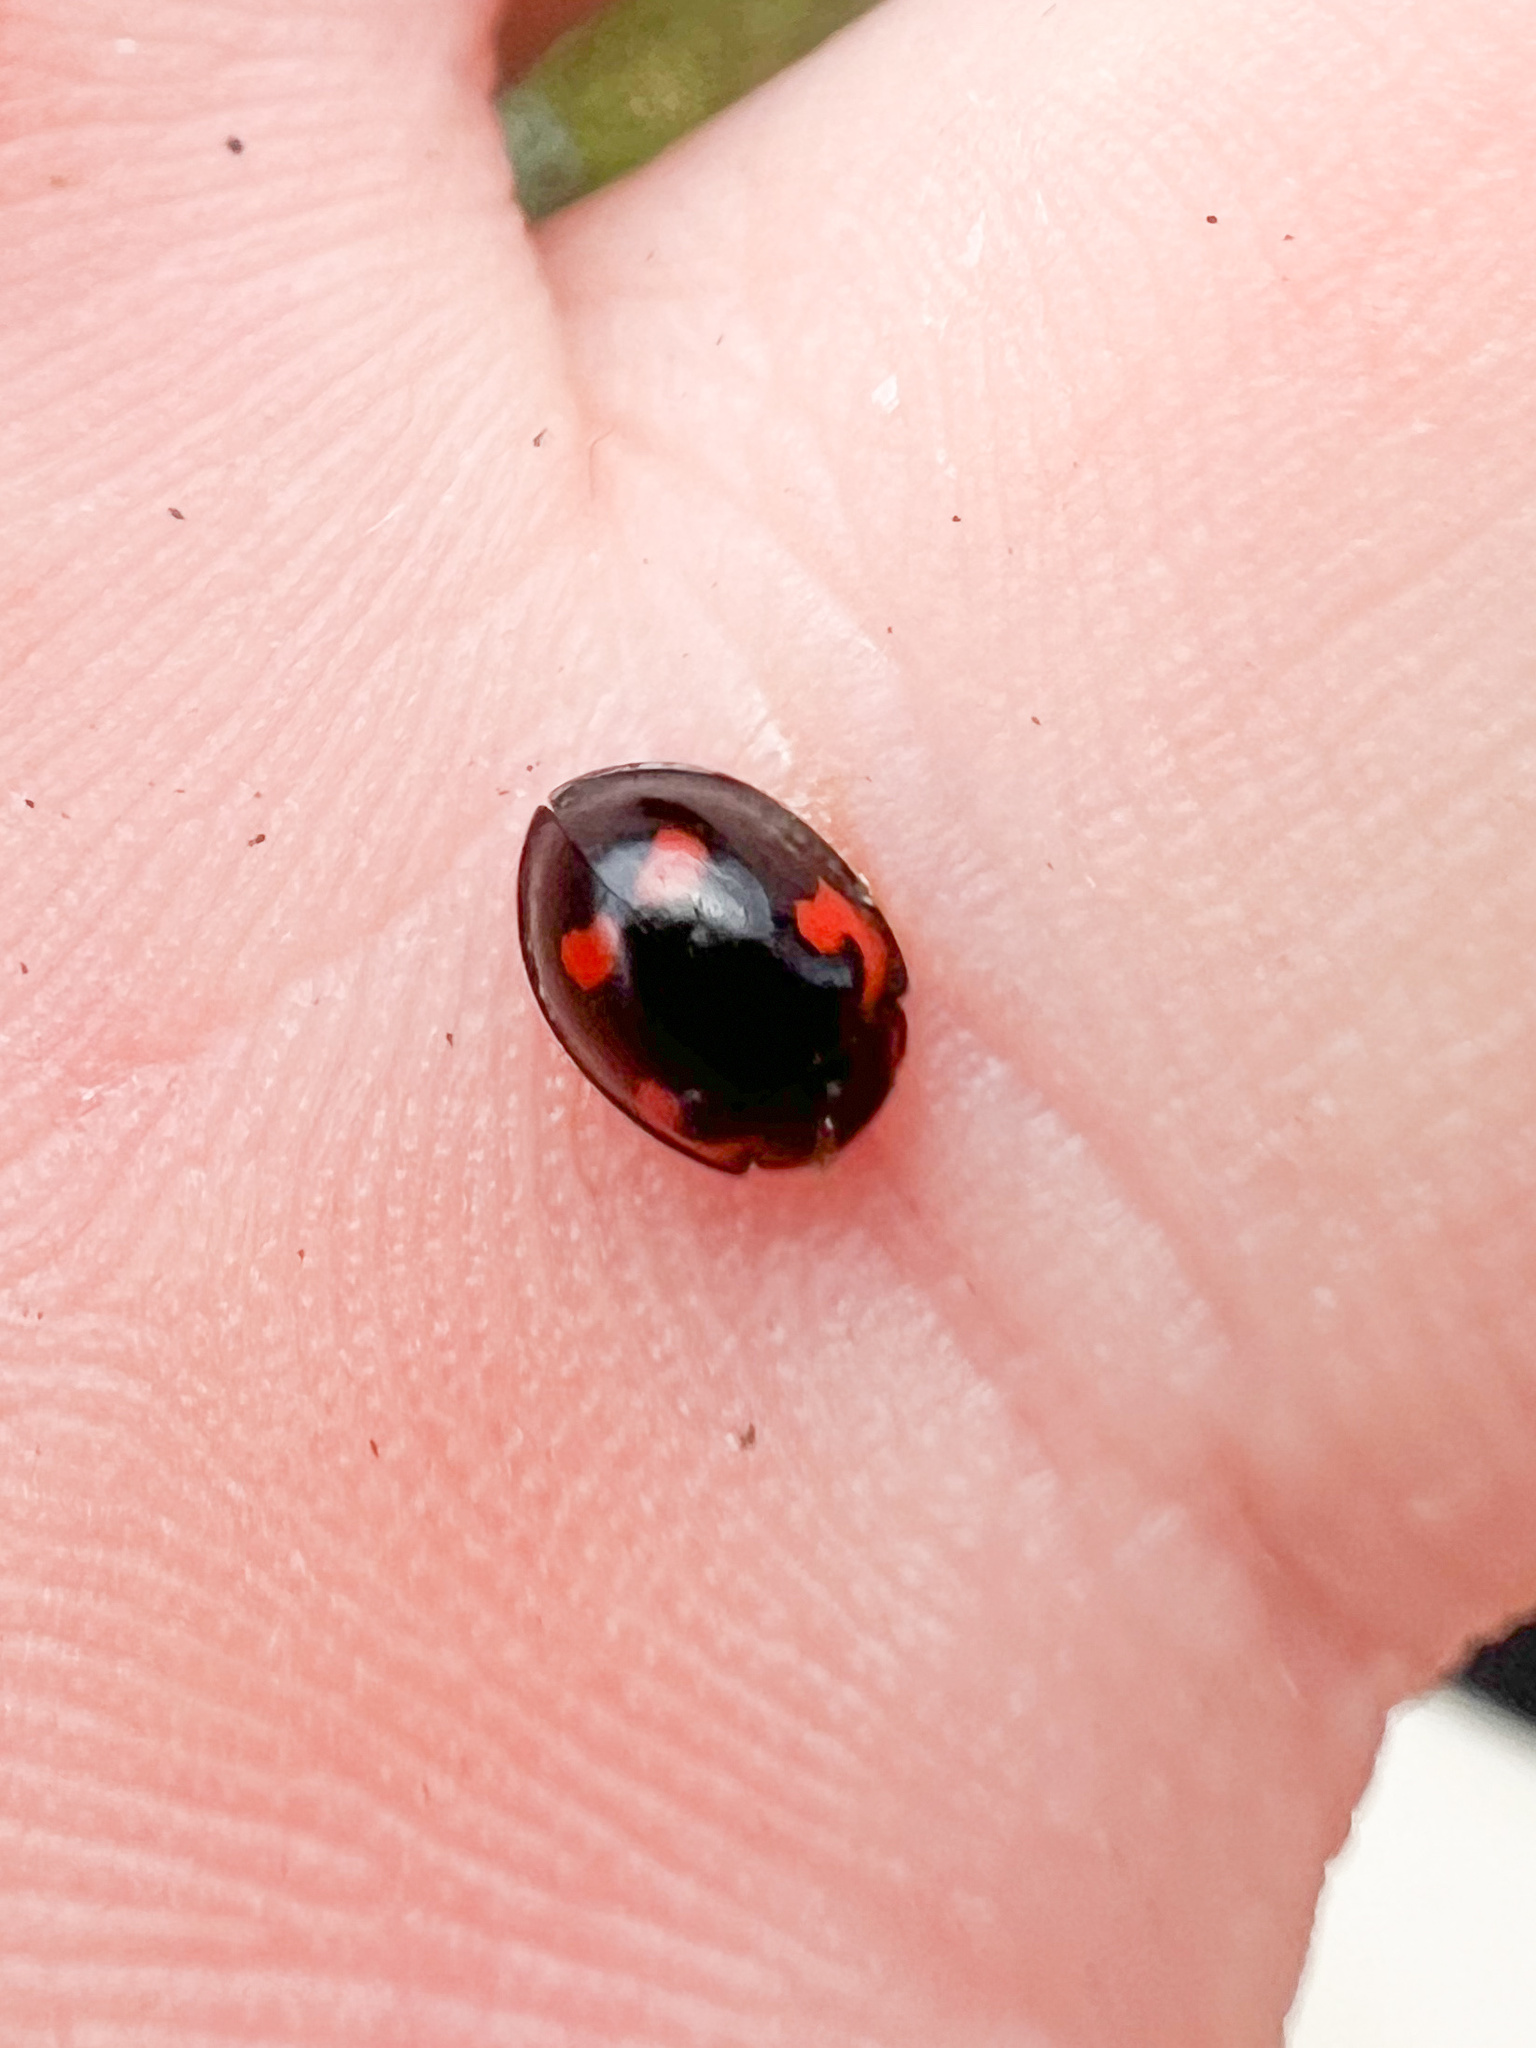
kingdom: Animalia
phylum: Arthropoda
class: Insecta
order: Coleoptera
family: Coccinellidae
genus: Brumus
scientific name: Brumus quadripustulatus
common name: Ladybird beetle
